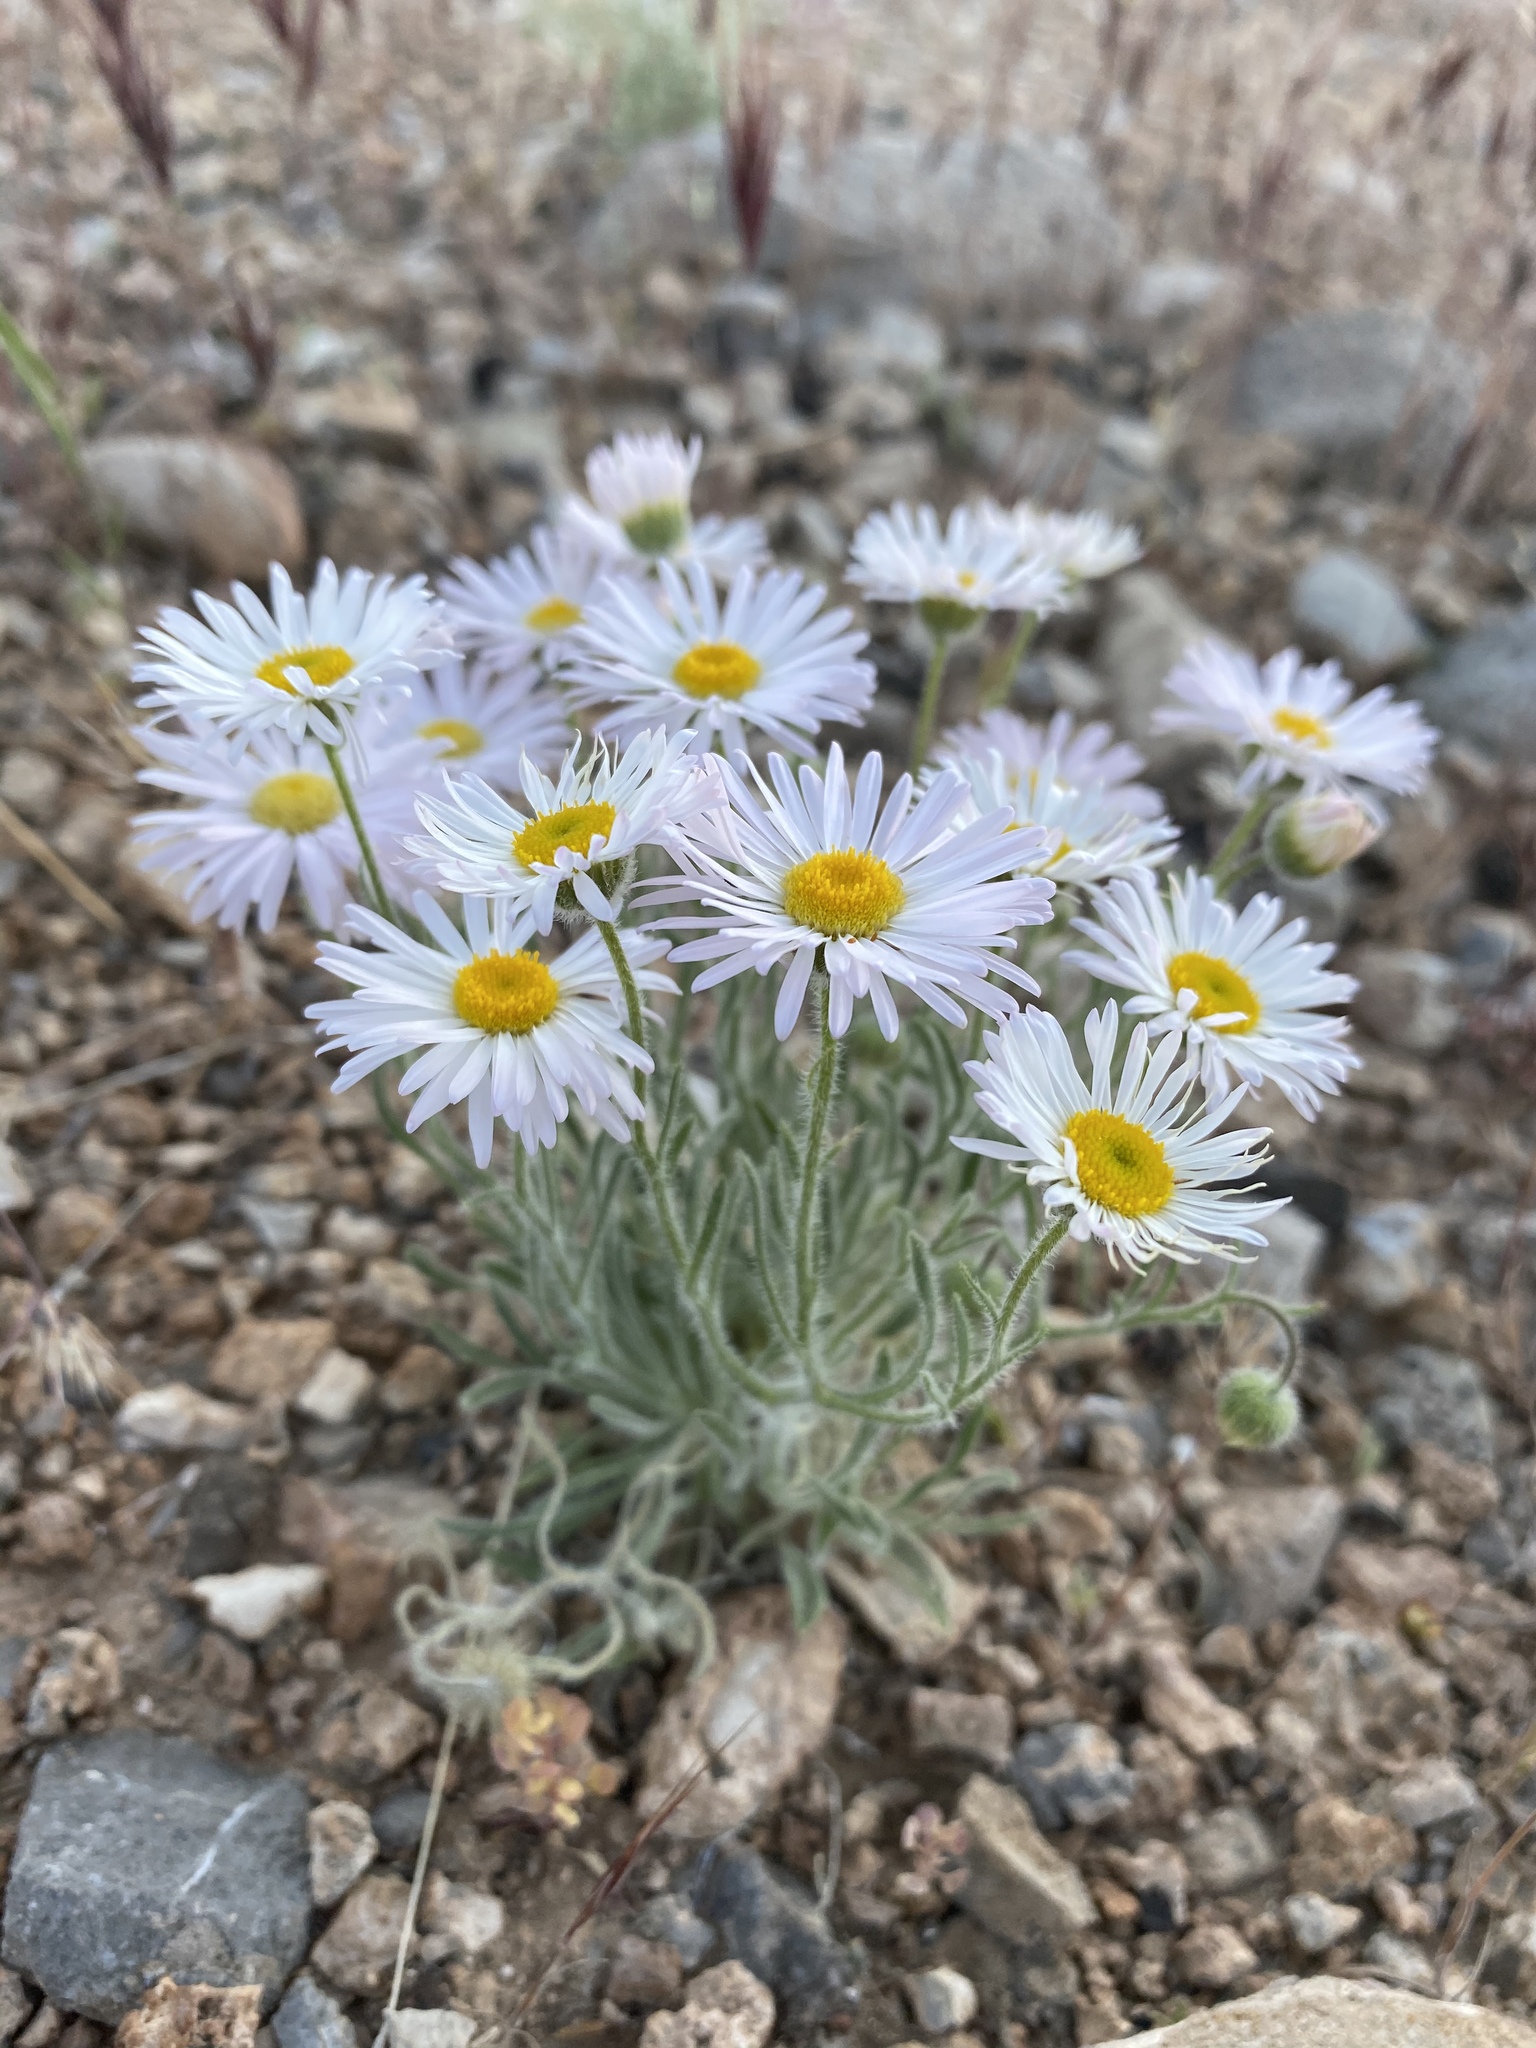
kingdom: Plantae
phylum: Tracheophyta
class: Magnoliopsida
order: Asterales
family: Asteraceae
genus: Erigeron
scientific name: Erigeron concinnus
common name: Navajo fleabane
